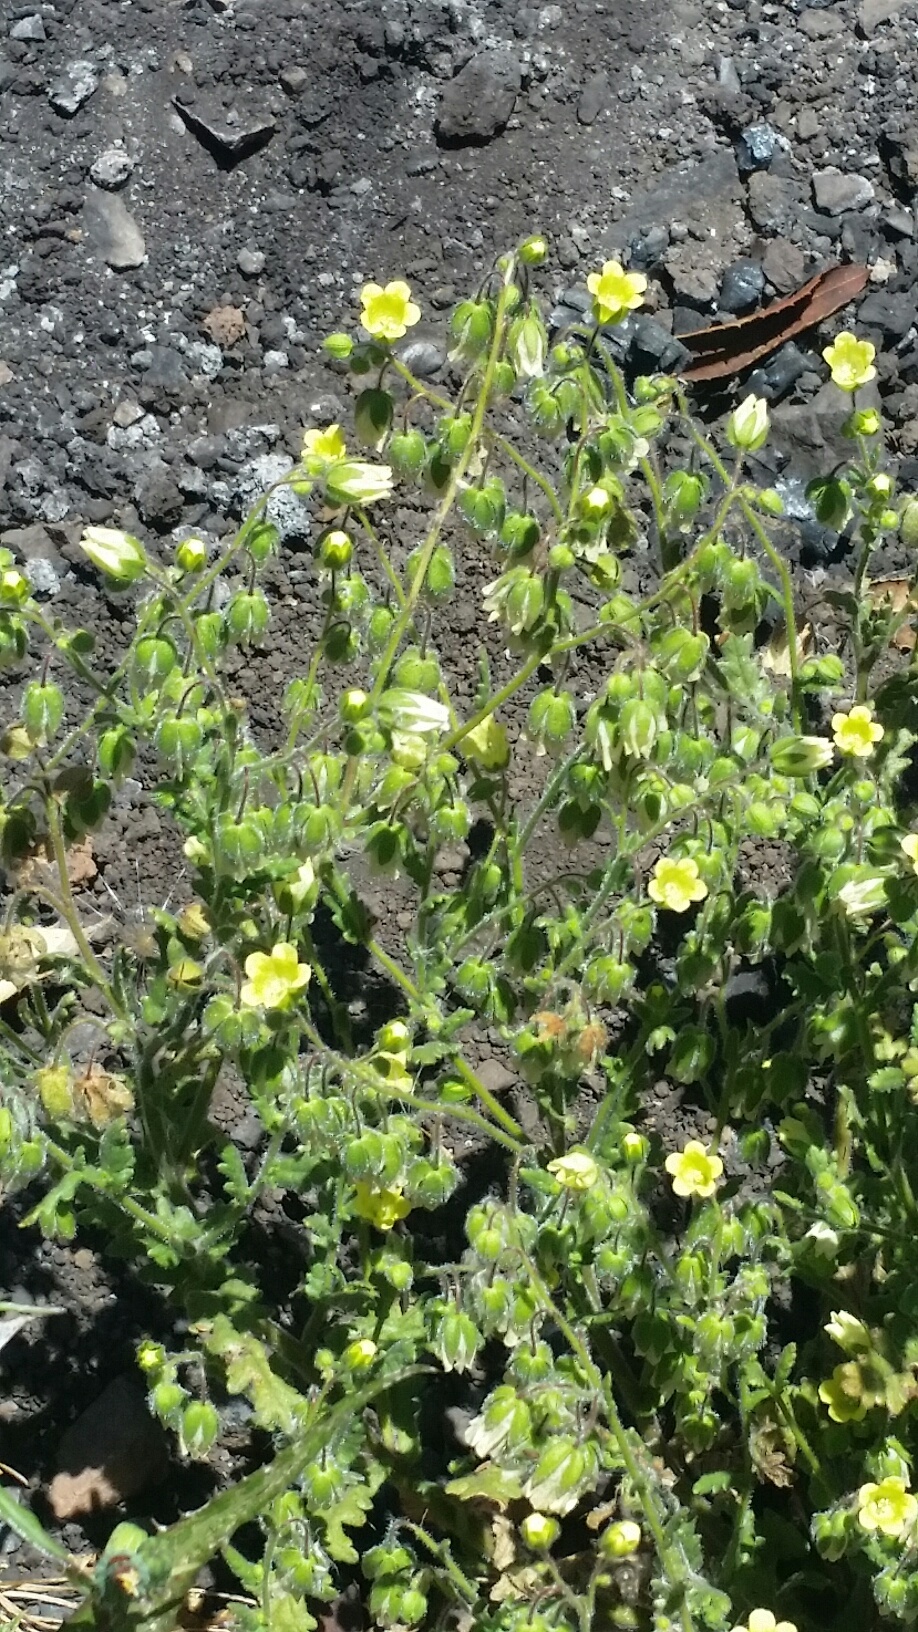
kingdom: Plantae
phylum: Tracheophyta
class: Magnoliopsida
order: Boraginales
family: Hydrophyllaceae
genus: Emmenanthe
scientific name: Emmenanthe penduliflora
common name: Whispering-bells
